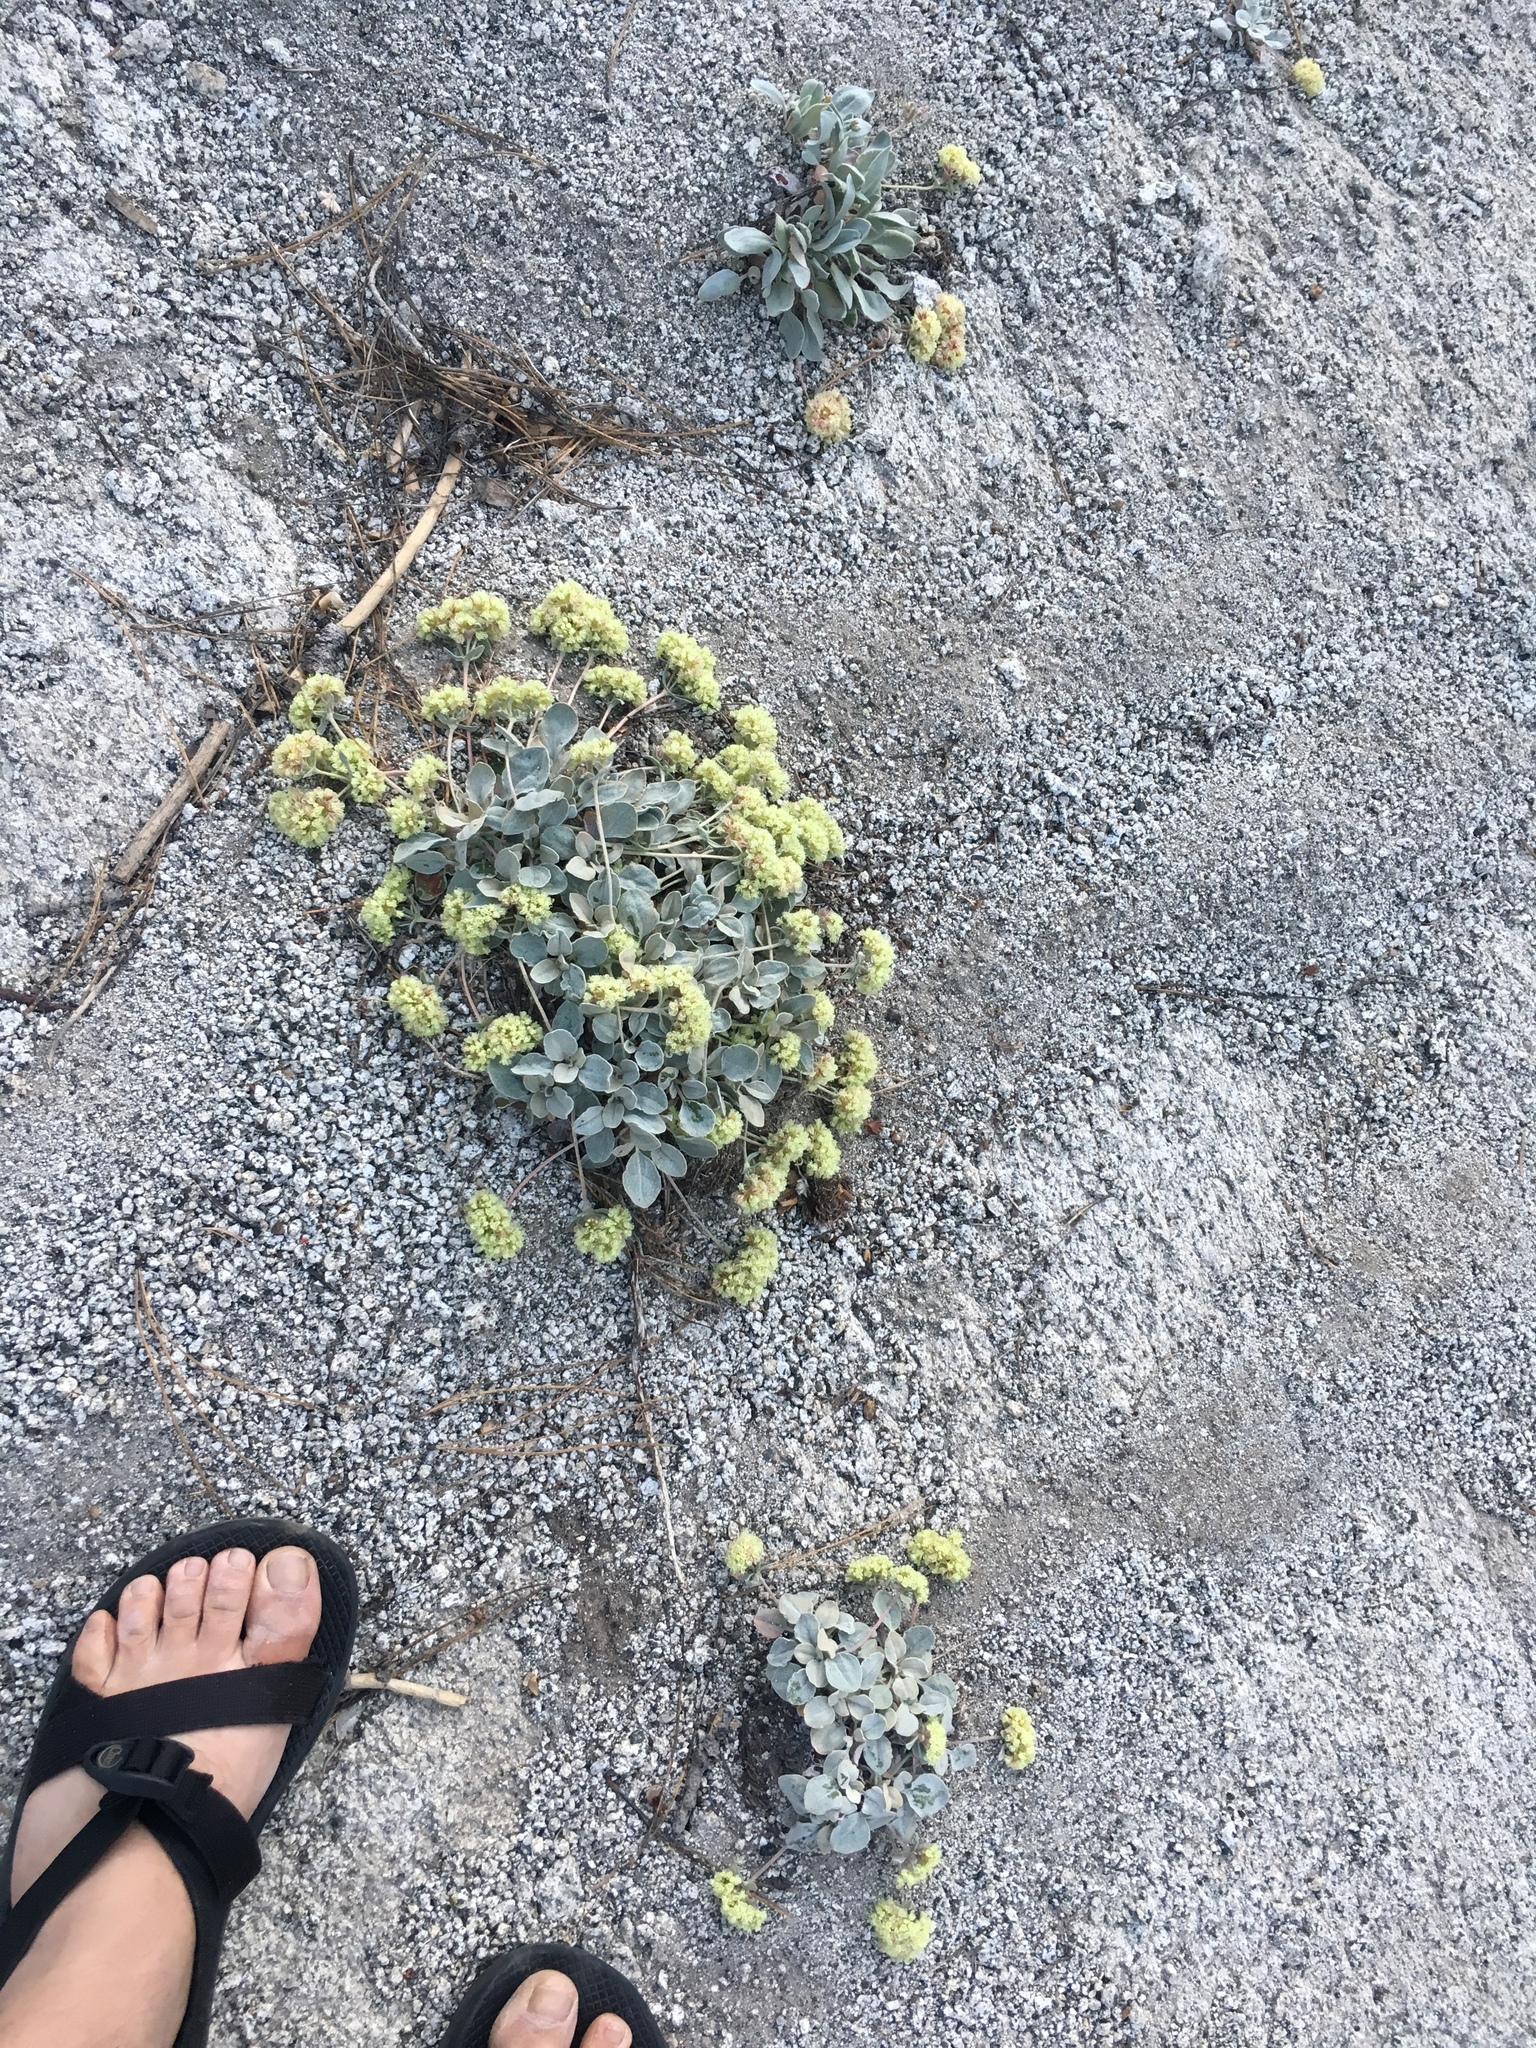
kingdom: Plantae
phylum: Tracheophyta
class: Magnoliopsida
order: Caryophyllales
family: Polygonaceae
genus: Eriogonum
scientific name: Eriogonum lobbii
